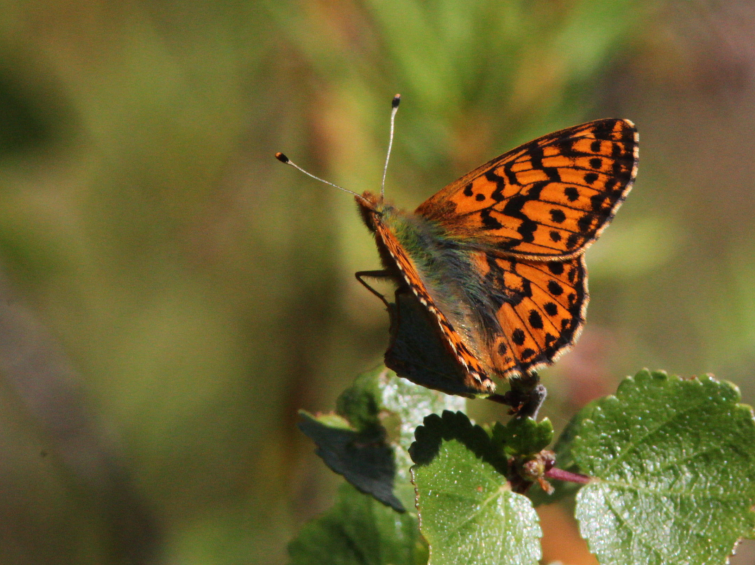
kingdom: Animalia
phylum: Arthropoda
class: Insecta
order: Lepidoptera
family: Nymphalidae
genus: Boloria
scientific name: Boloria aquilonaris
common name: Cranberry fritillary
